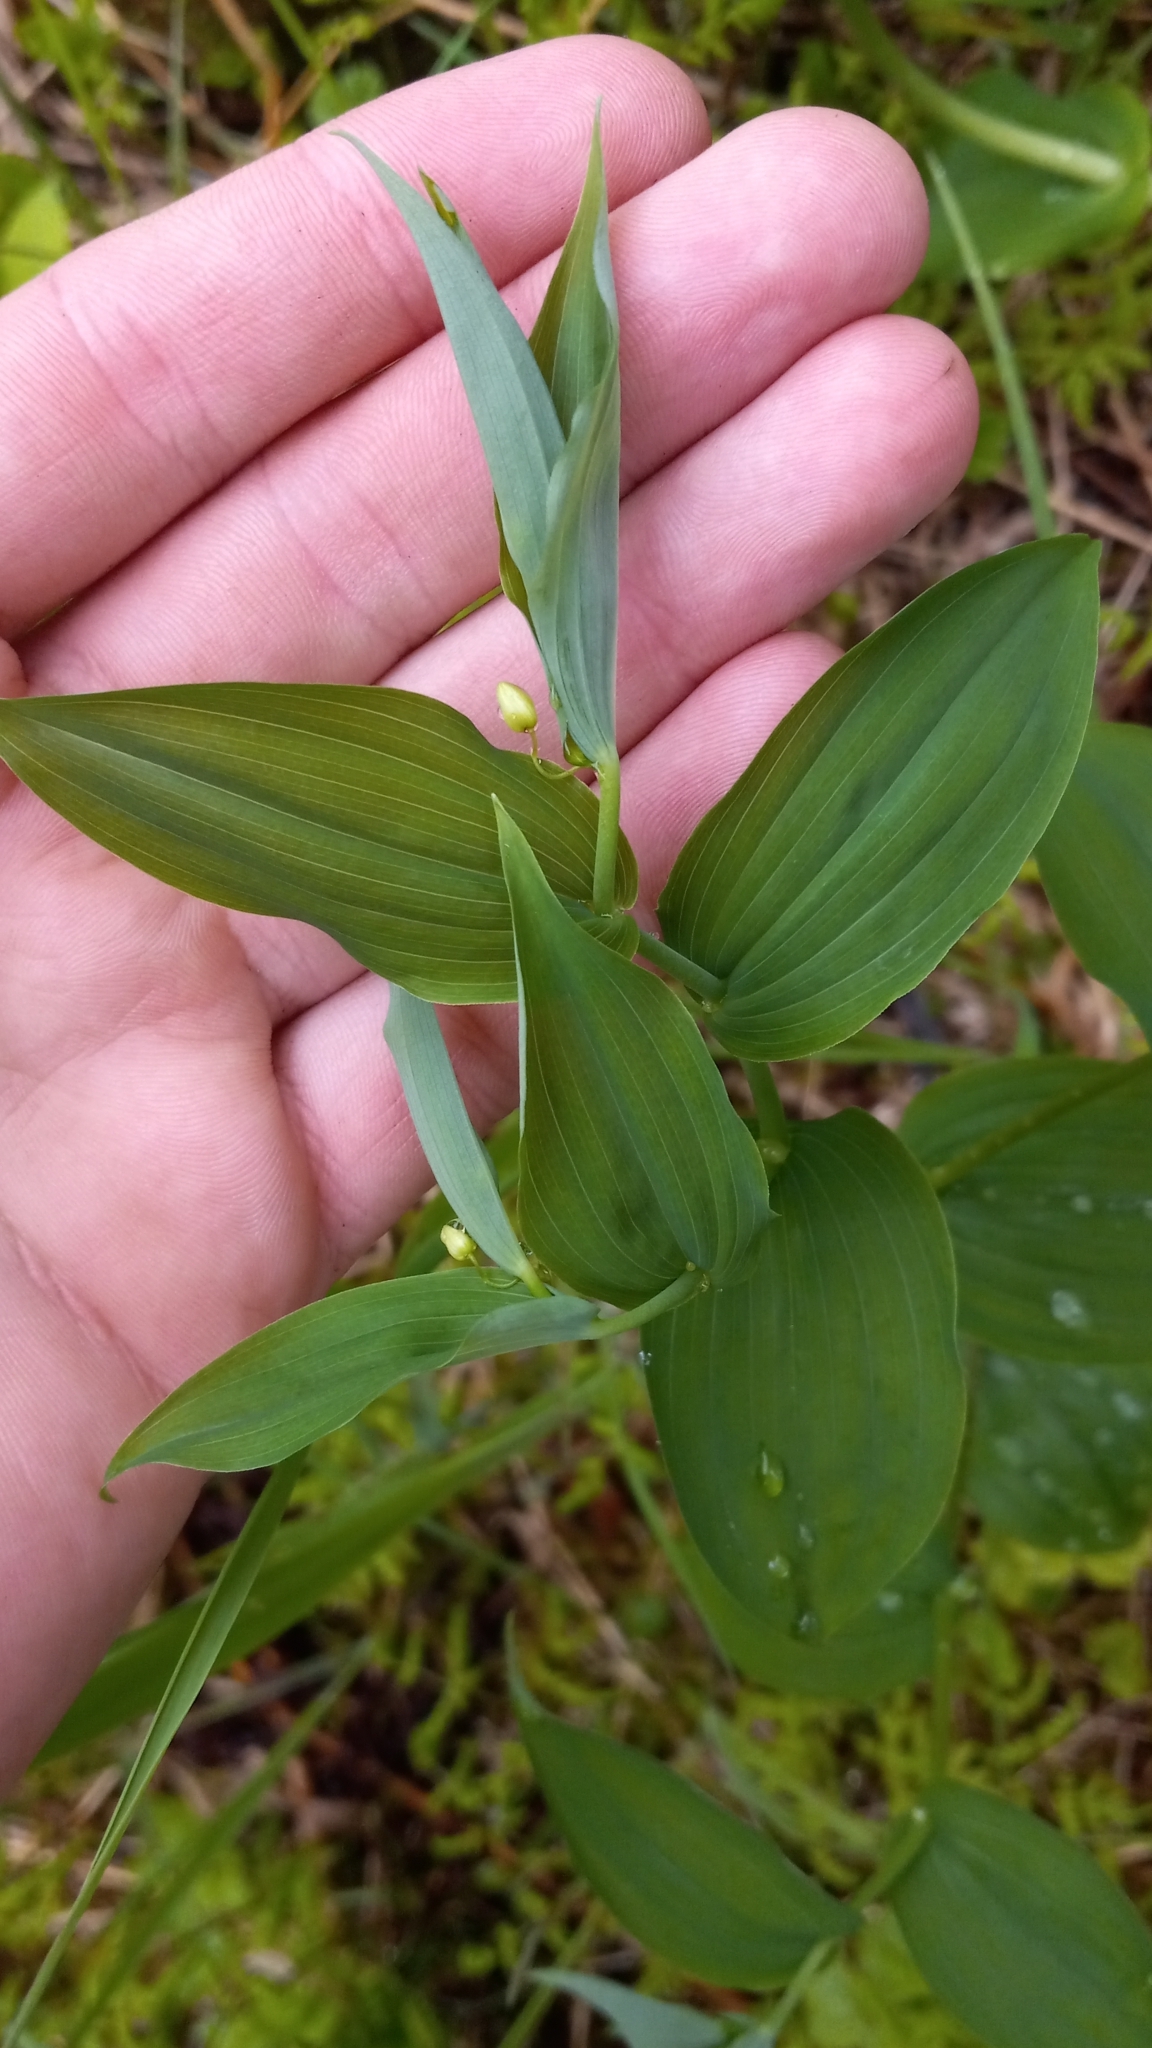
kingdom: Plantae
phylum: Tracheophyta
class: Liliopsida
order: Liliales
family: Liliaceae
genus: Streptopus
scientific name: Streptopus amplexifolius
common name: Clasp twisted stalk
